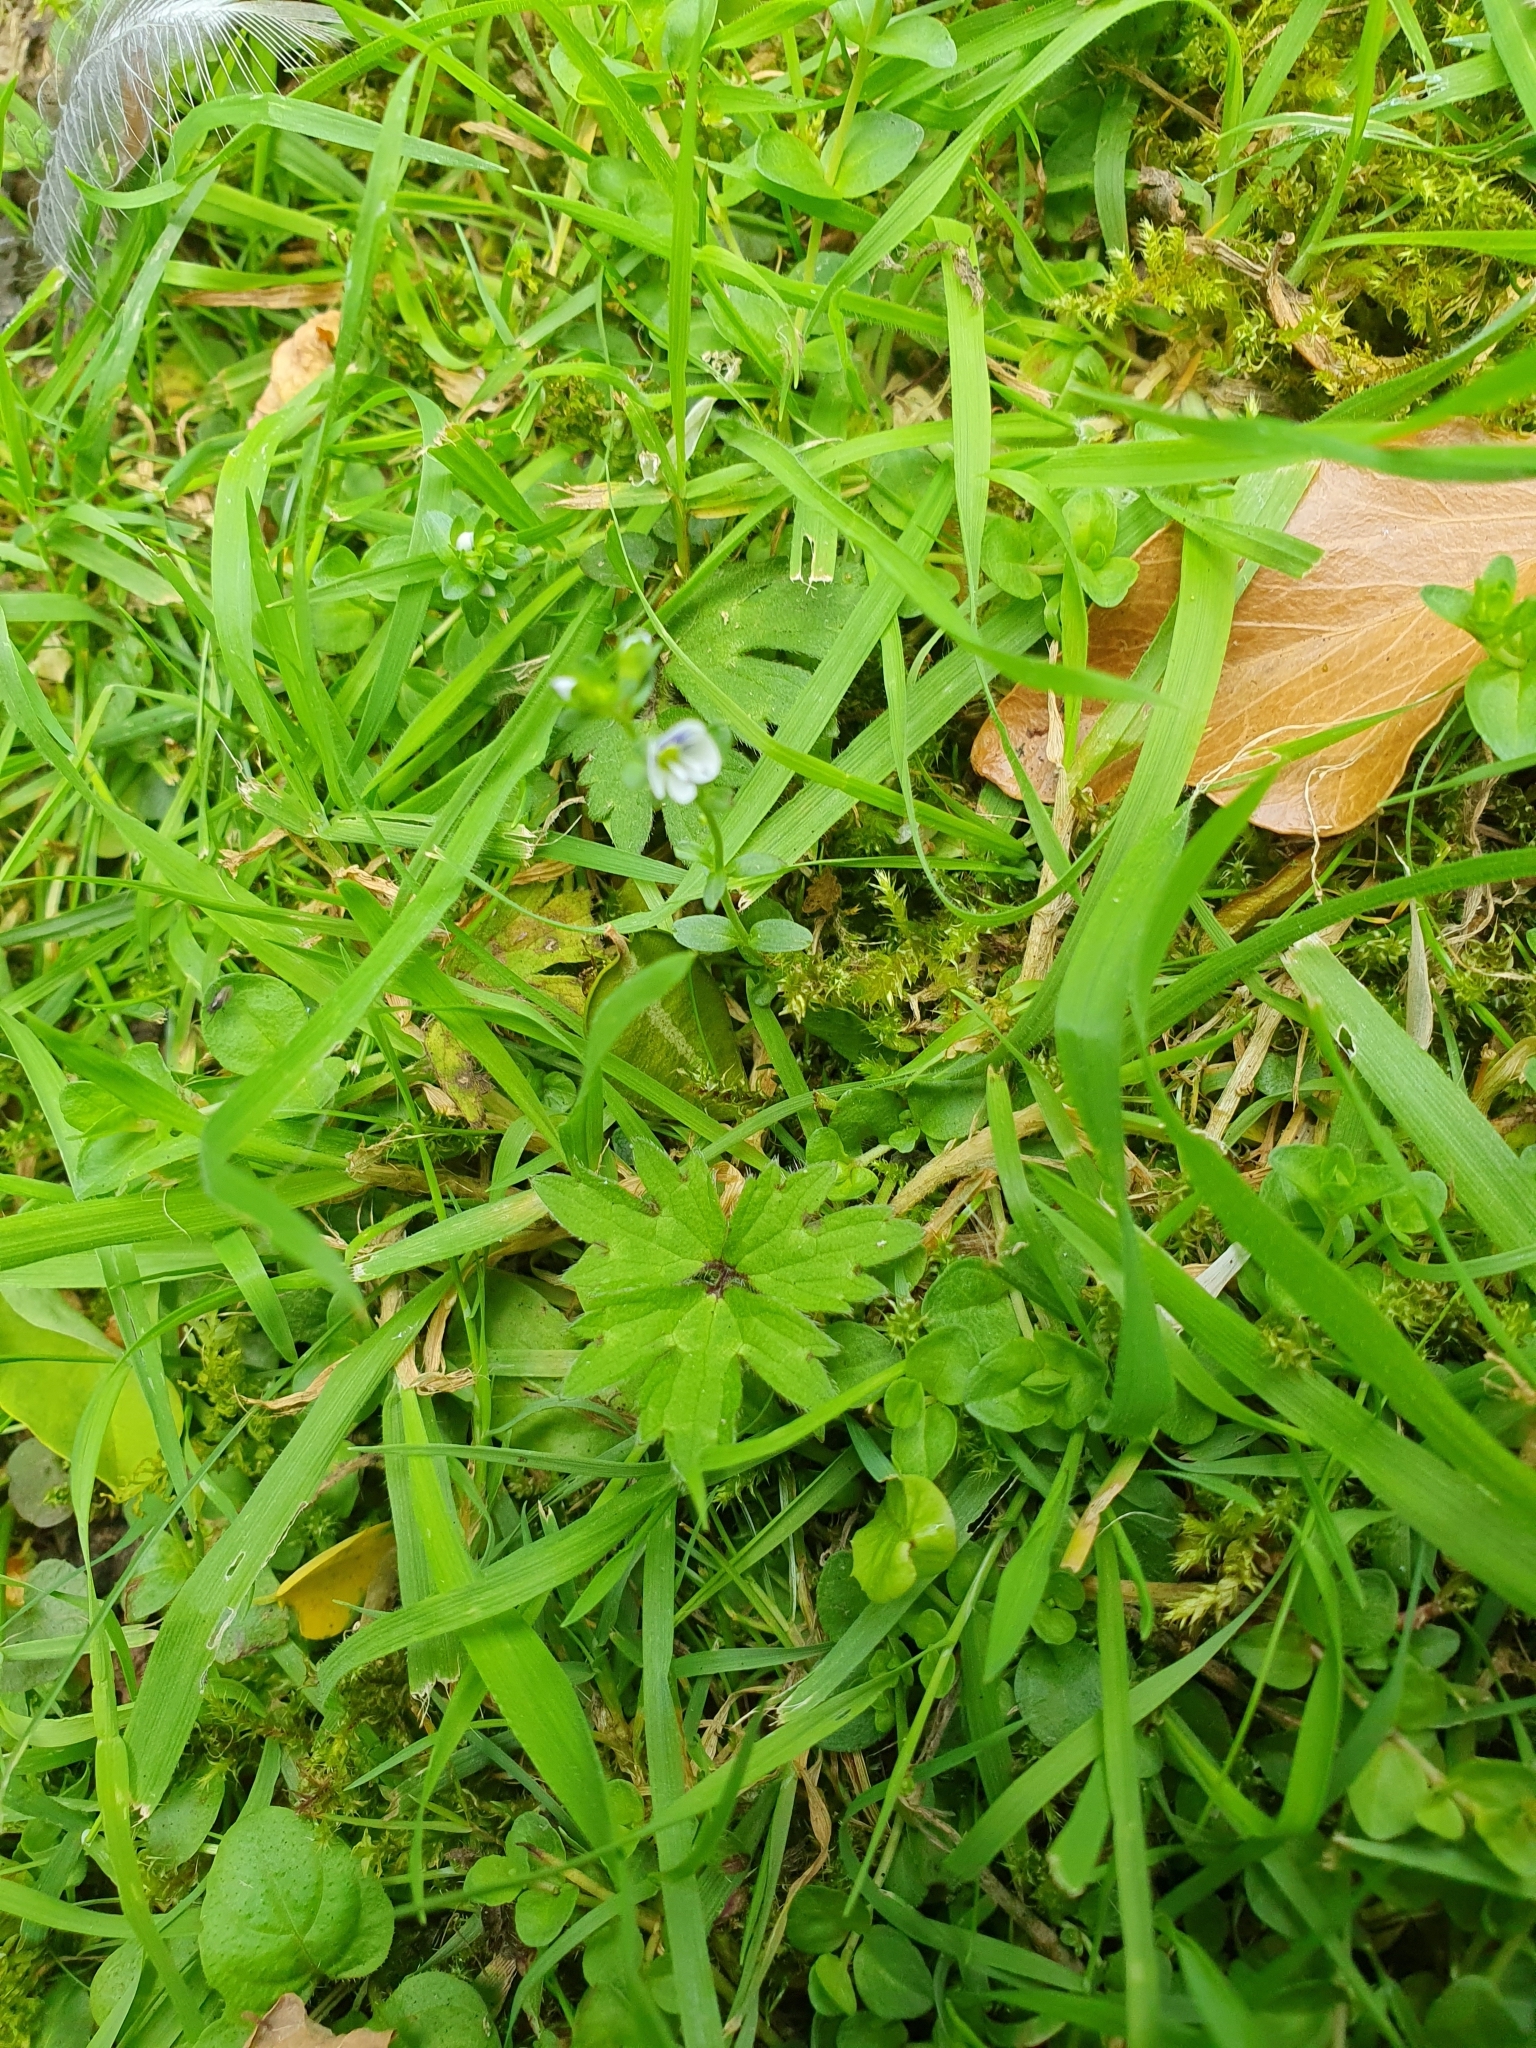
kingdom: Plantae
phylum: Tracheophyta
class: Magnoliopsida
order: Lamiales
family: Plantaginaceae
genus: Veronica
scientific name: Veronica serpyllifolia
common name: Thyme-leaved speedwell
